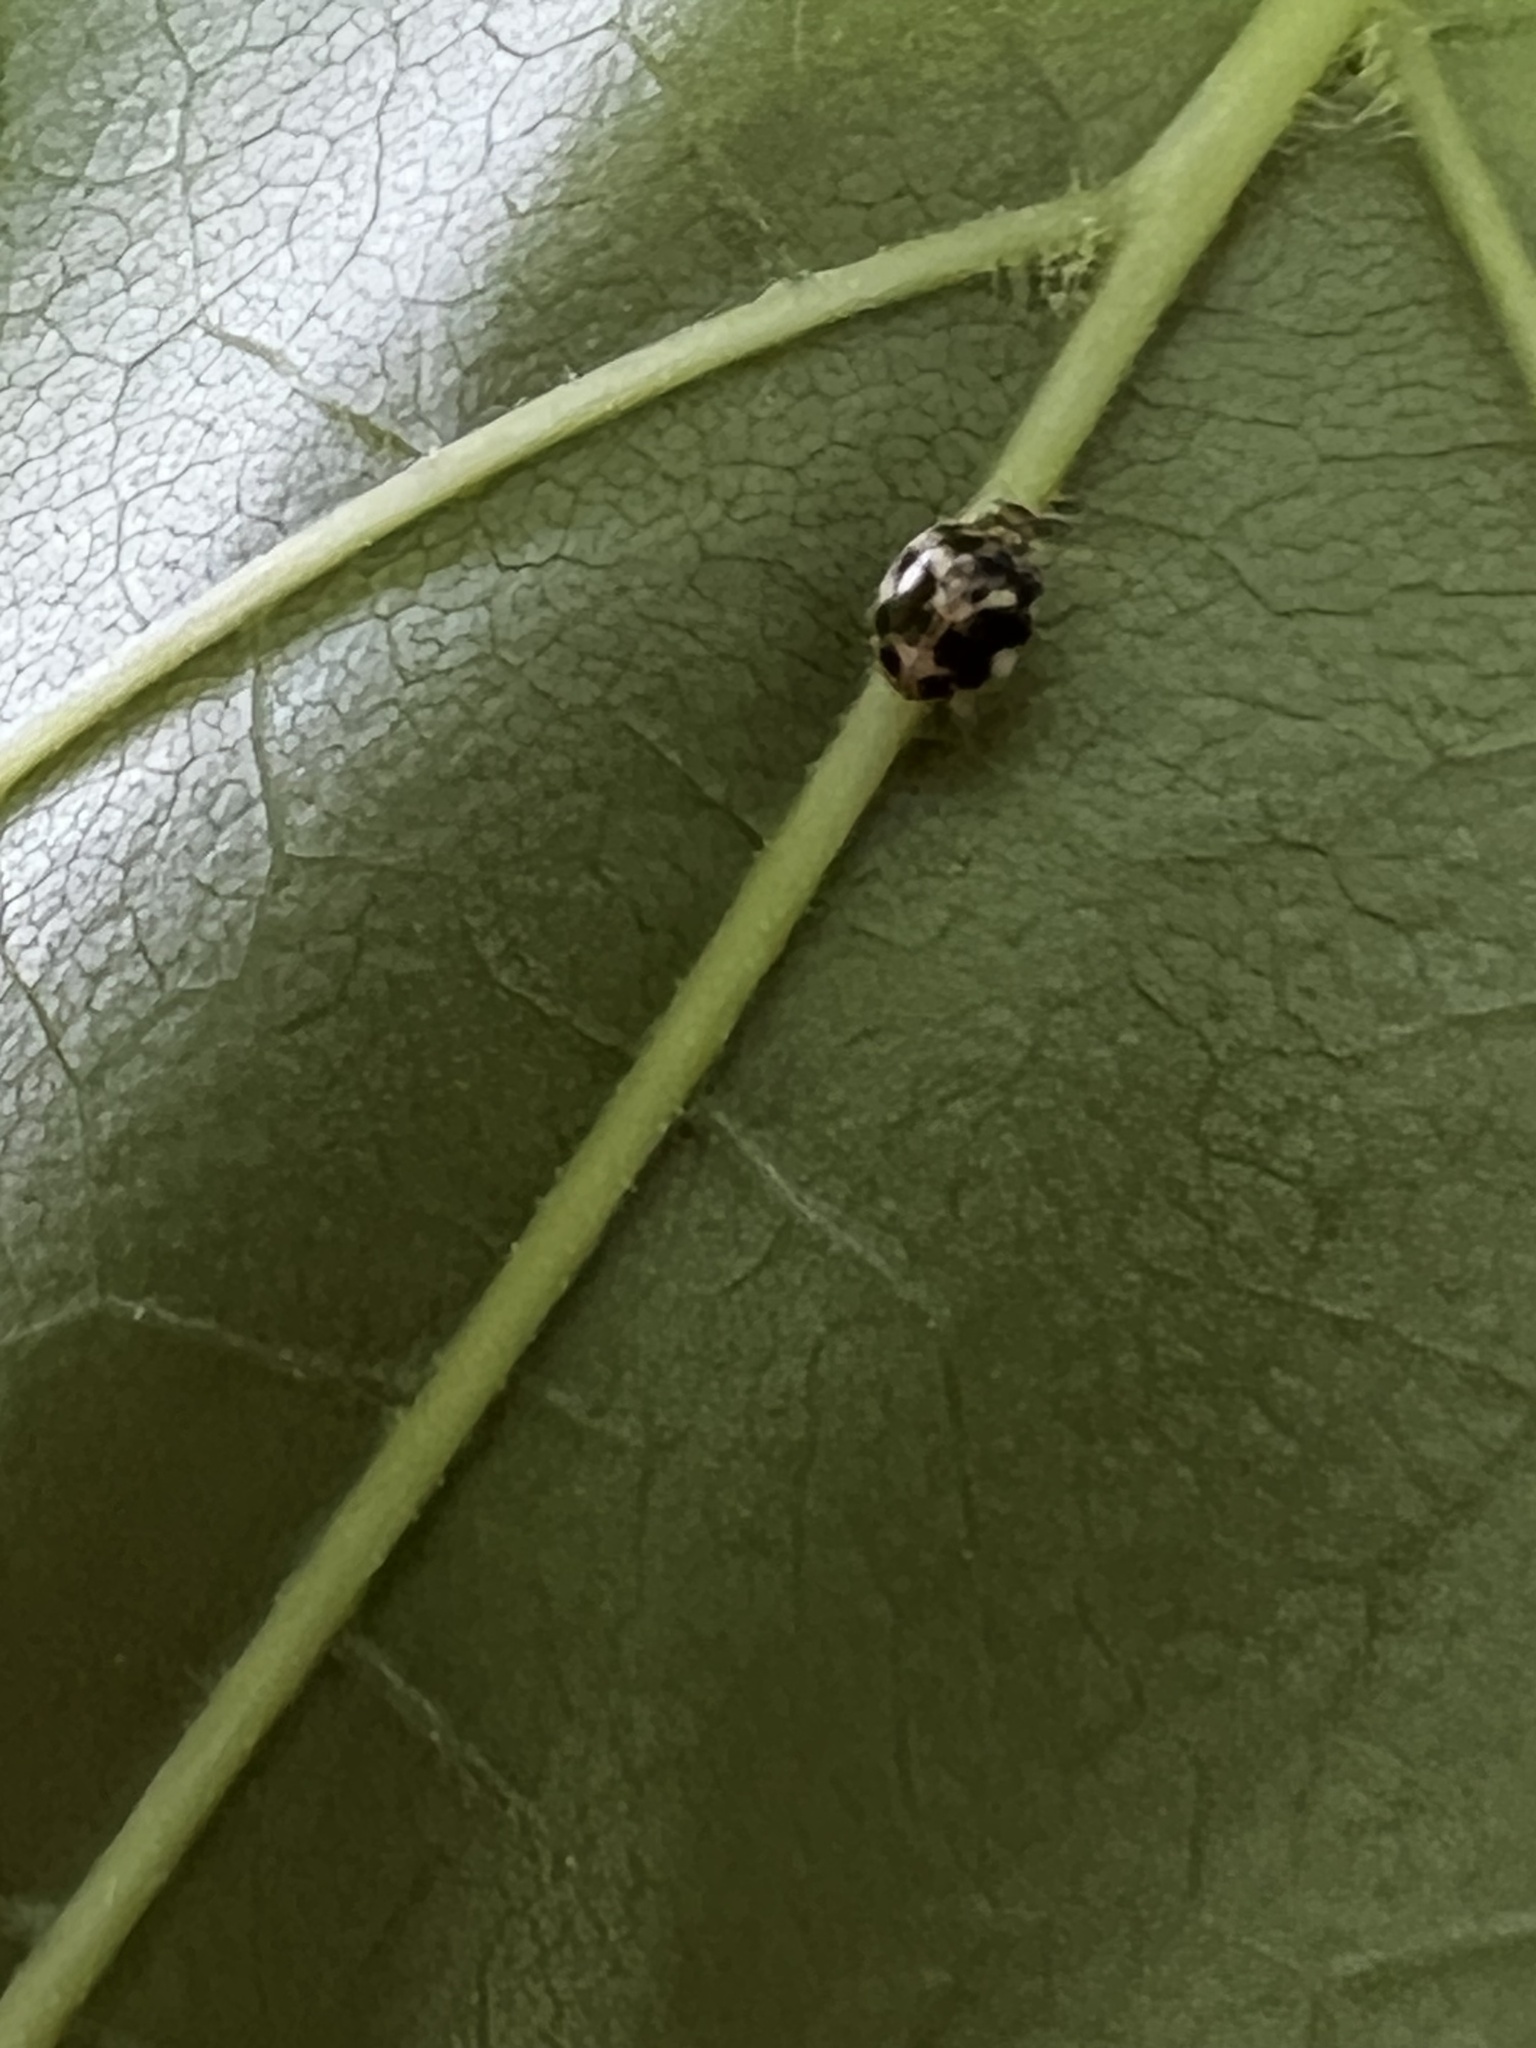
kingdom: Animalia
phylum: Arthropoda
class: Insecta
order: Coleoptera
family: Coccinellidae
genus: Psyllobora
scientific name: Psyllobora vigintimaculata
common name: Ladybird beetle
